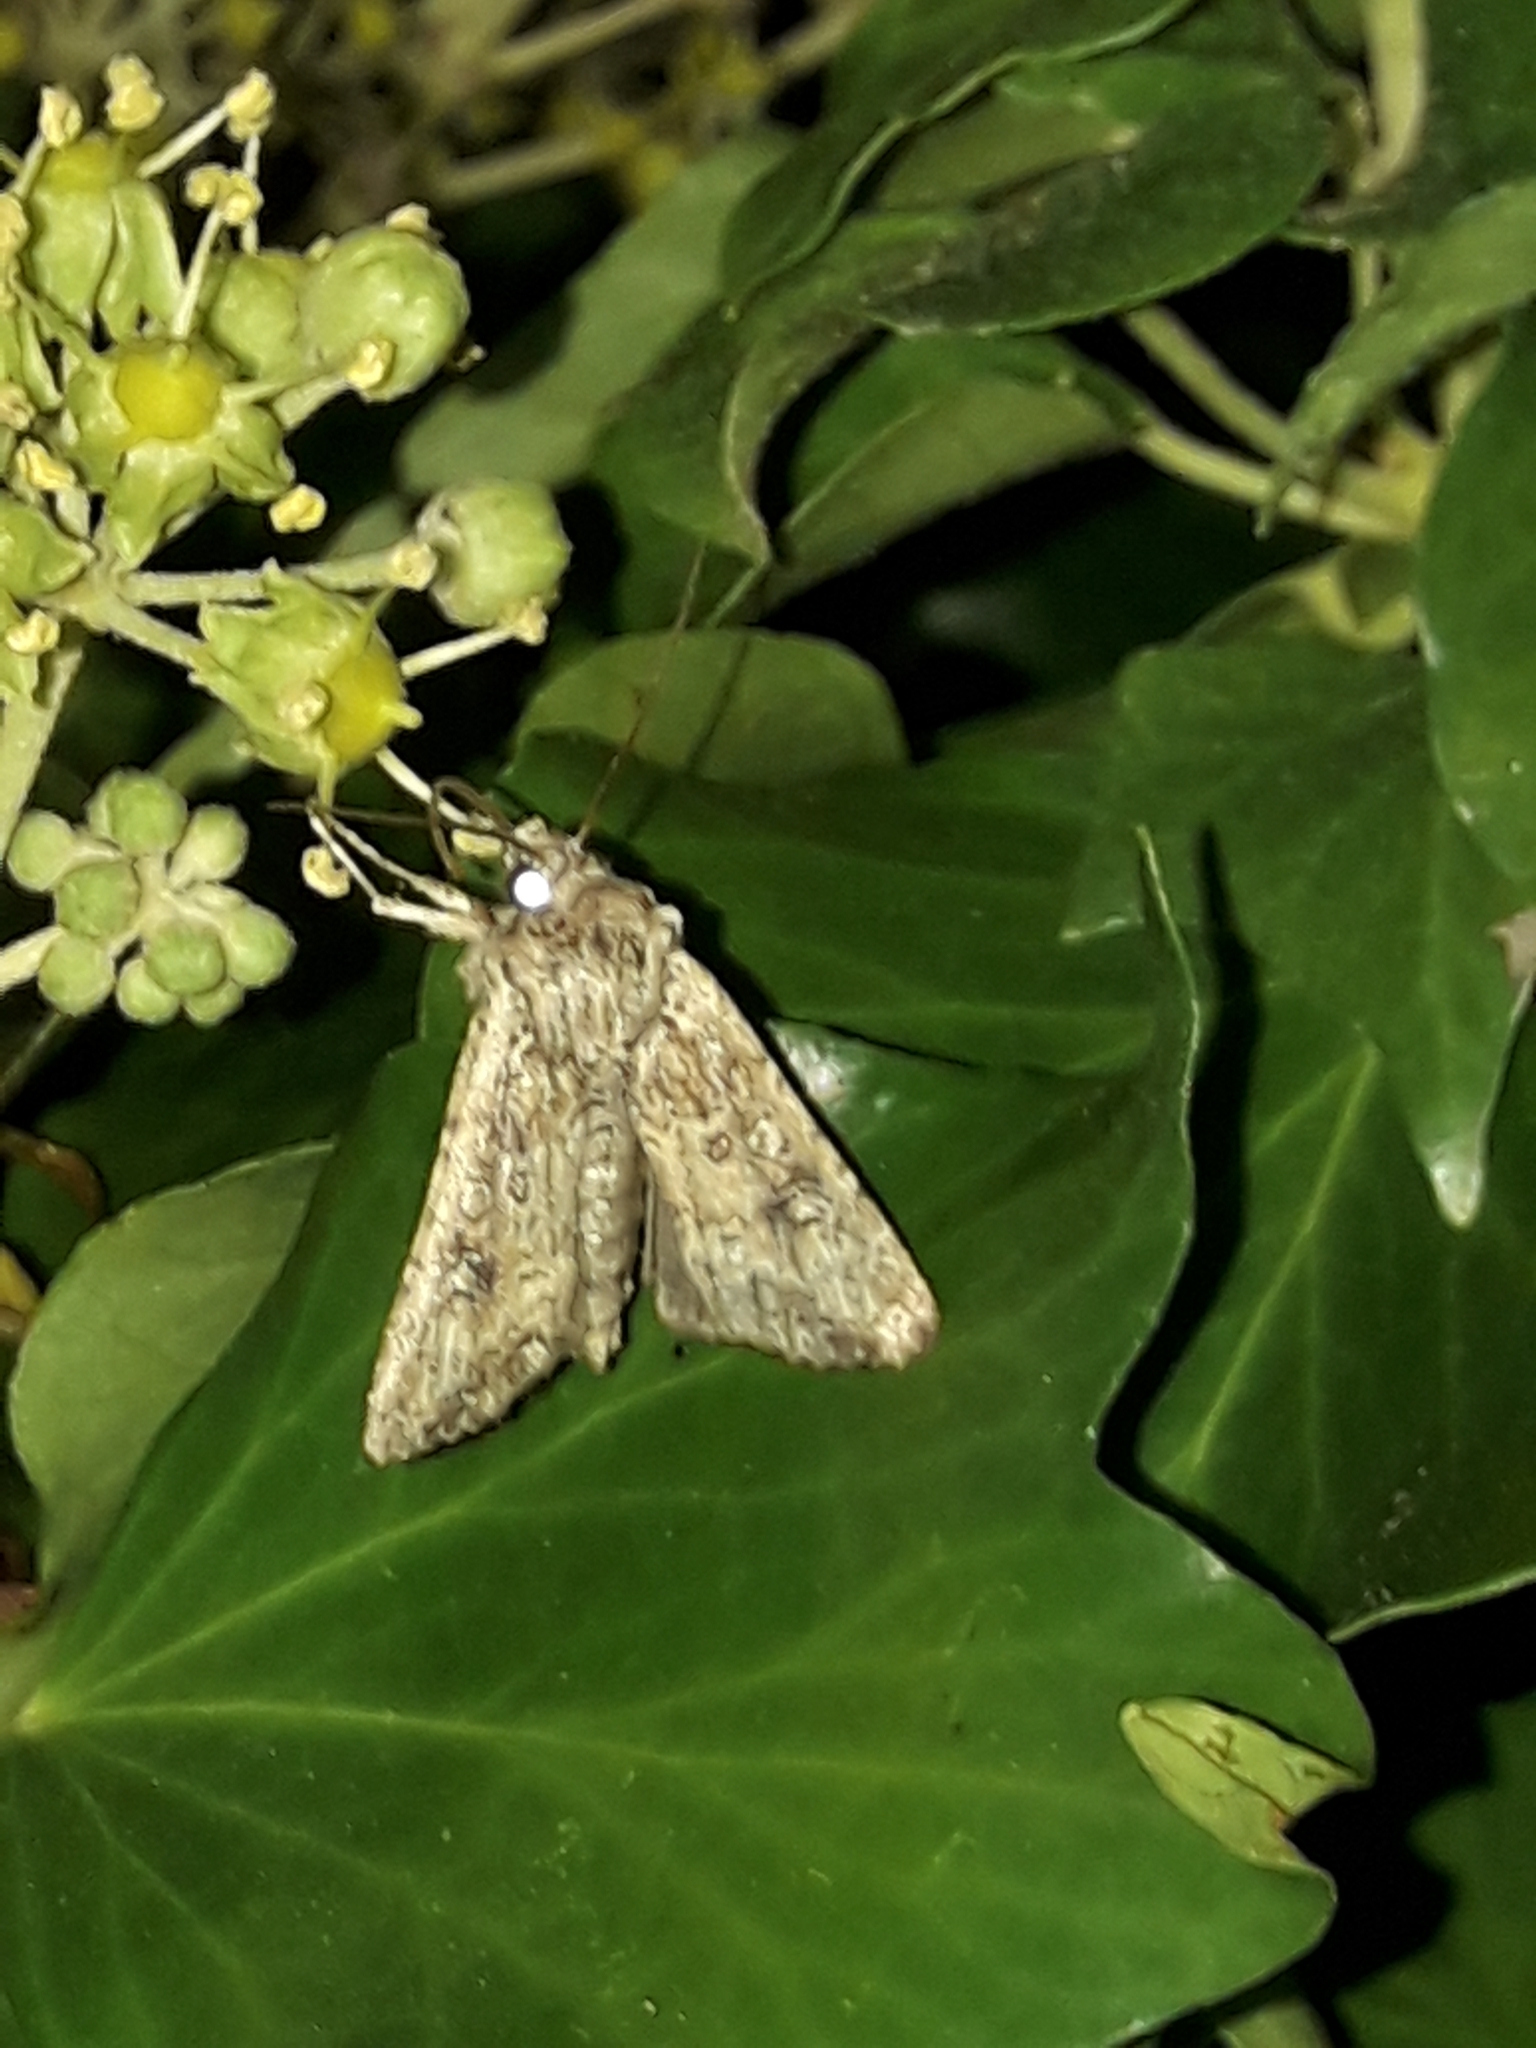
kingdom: Animalia
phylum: Arthropoda
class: Insecta
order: Lepidoptera
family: Noctuidae
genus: Ichneutica
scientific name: Ichneutica lignana
